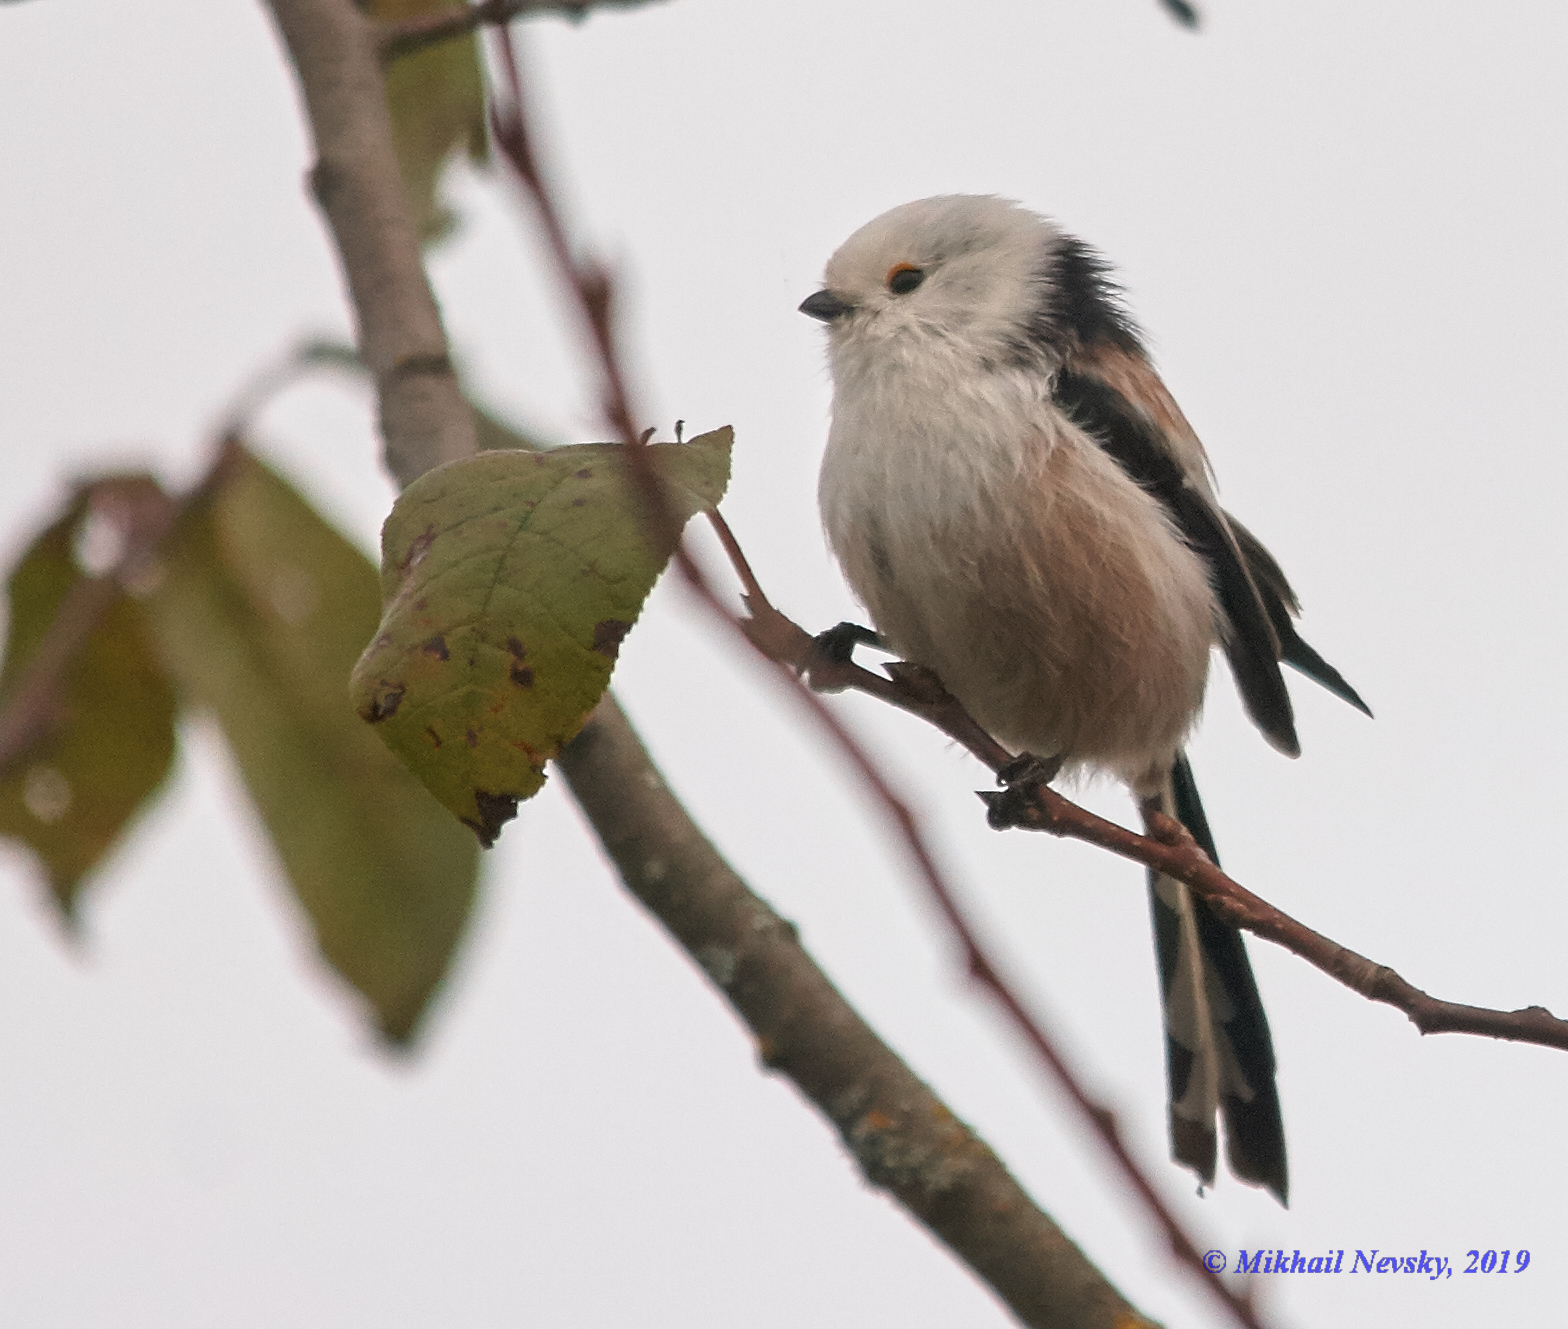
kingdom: Animalia
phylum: Chordata
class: Aves
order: Passeriformes
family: Aegithalidae
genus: Aegithalos
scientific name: Aegithalos caudatus
